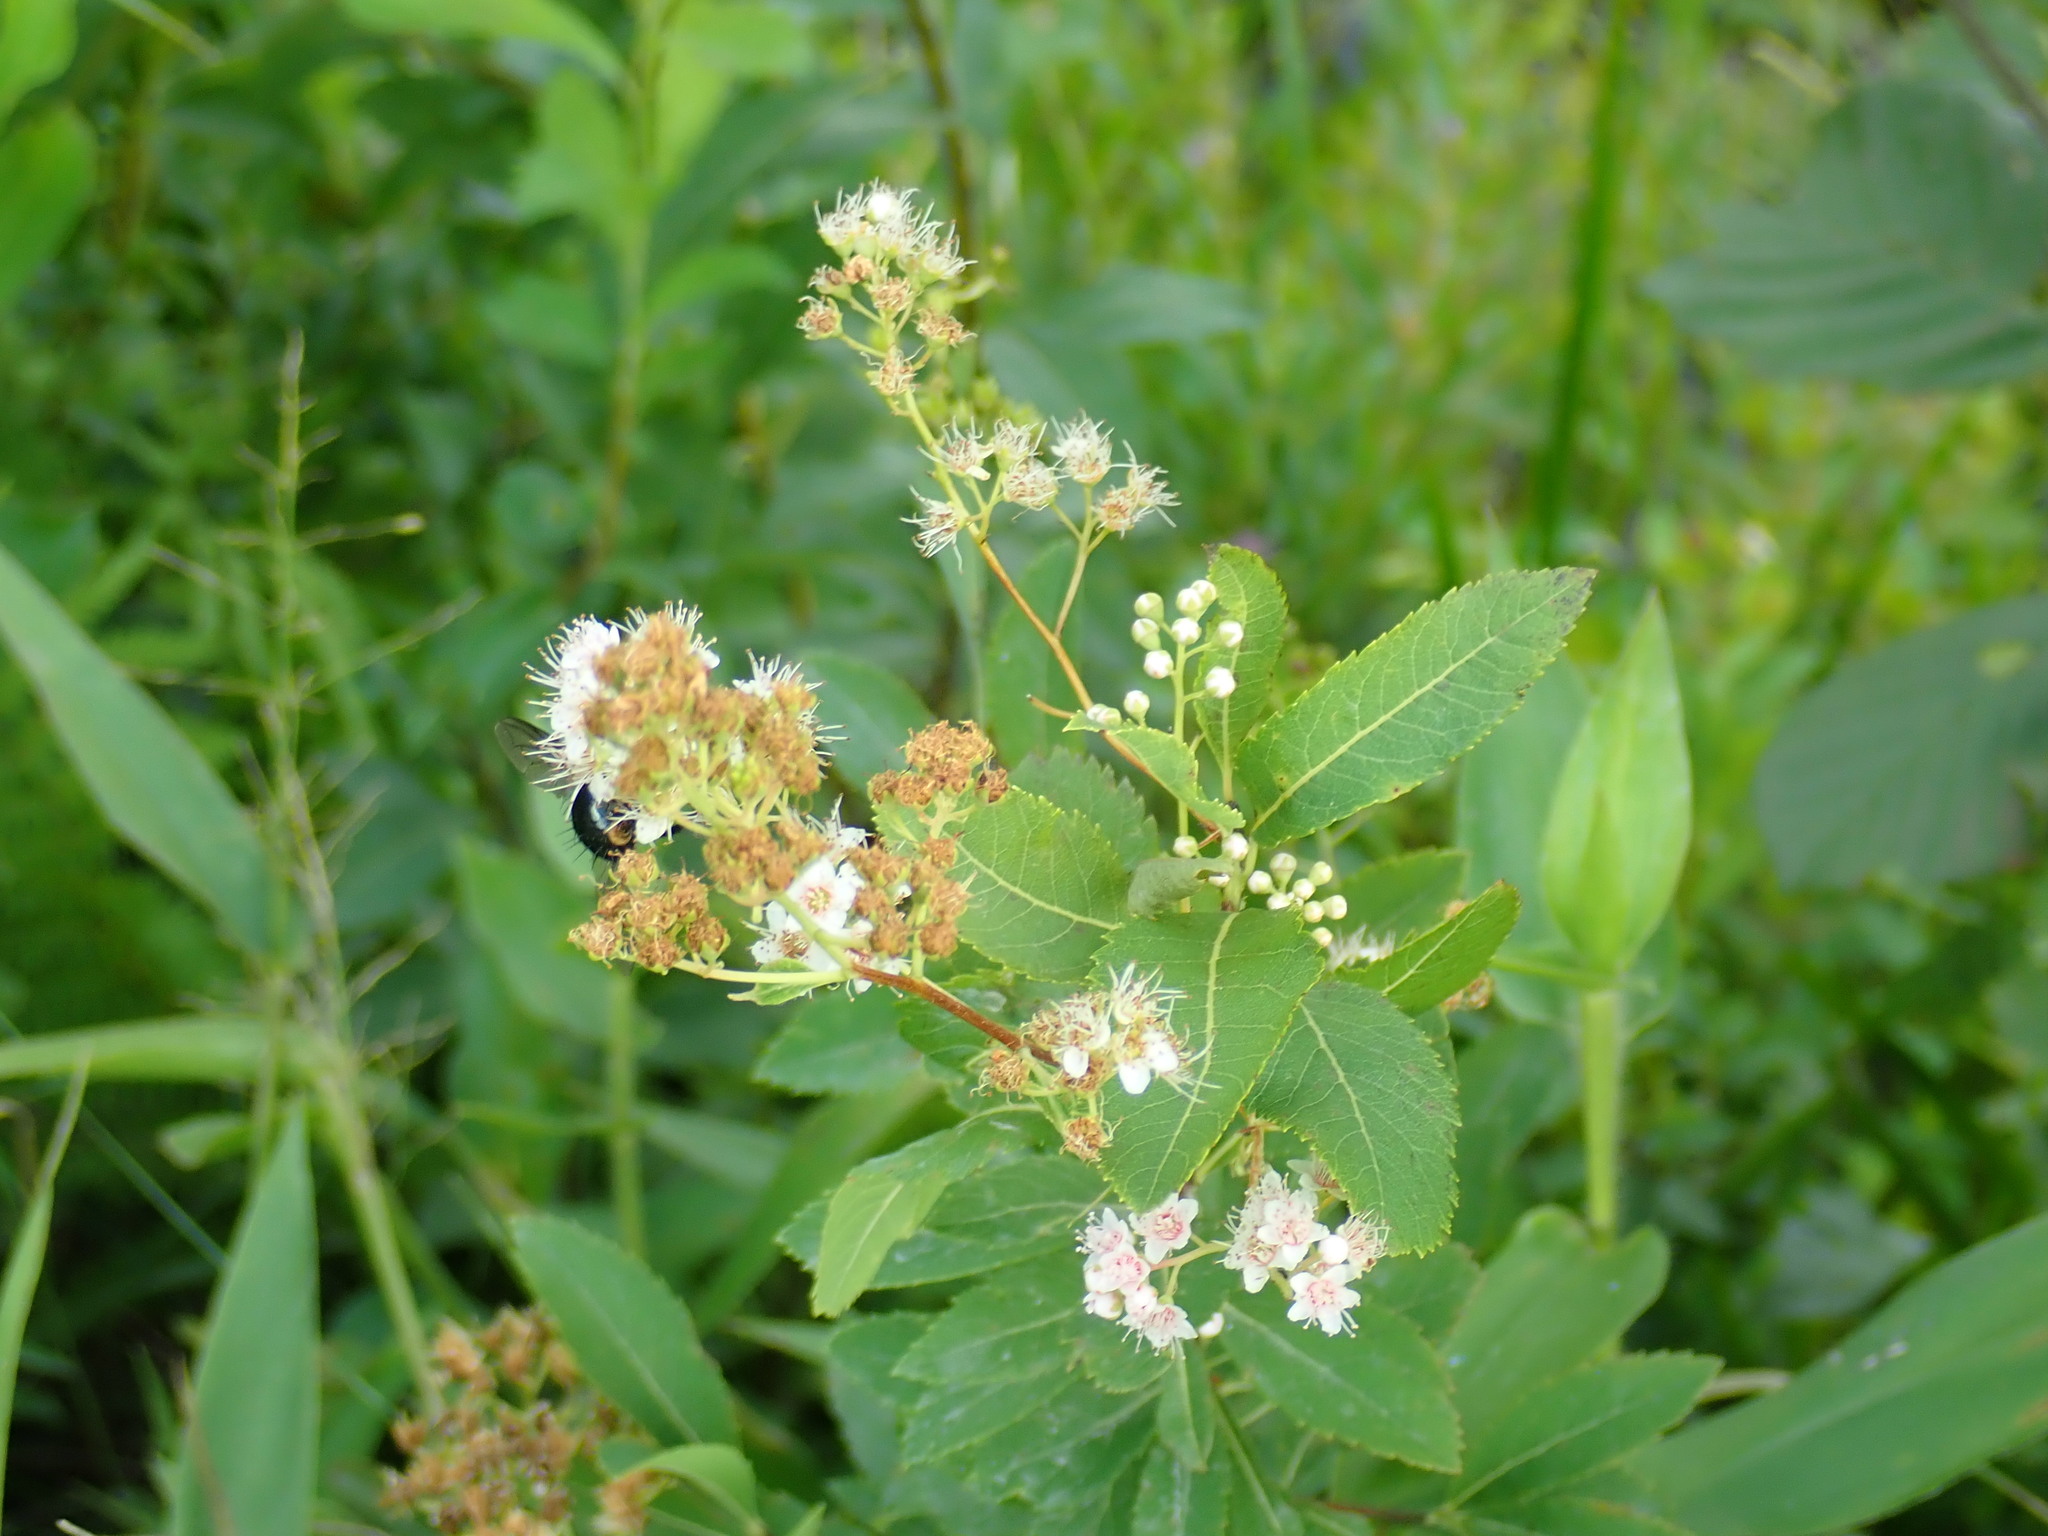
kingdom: Plantae
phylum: Tracheophyta
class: Magnoliopsida
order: Rosales
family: Rosaceae
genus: Spiraea
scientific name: Spiraea alba
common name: Pale bridewort
